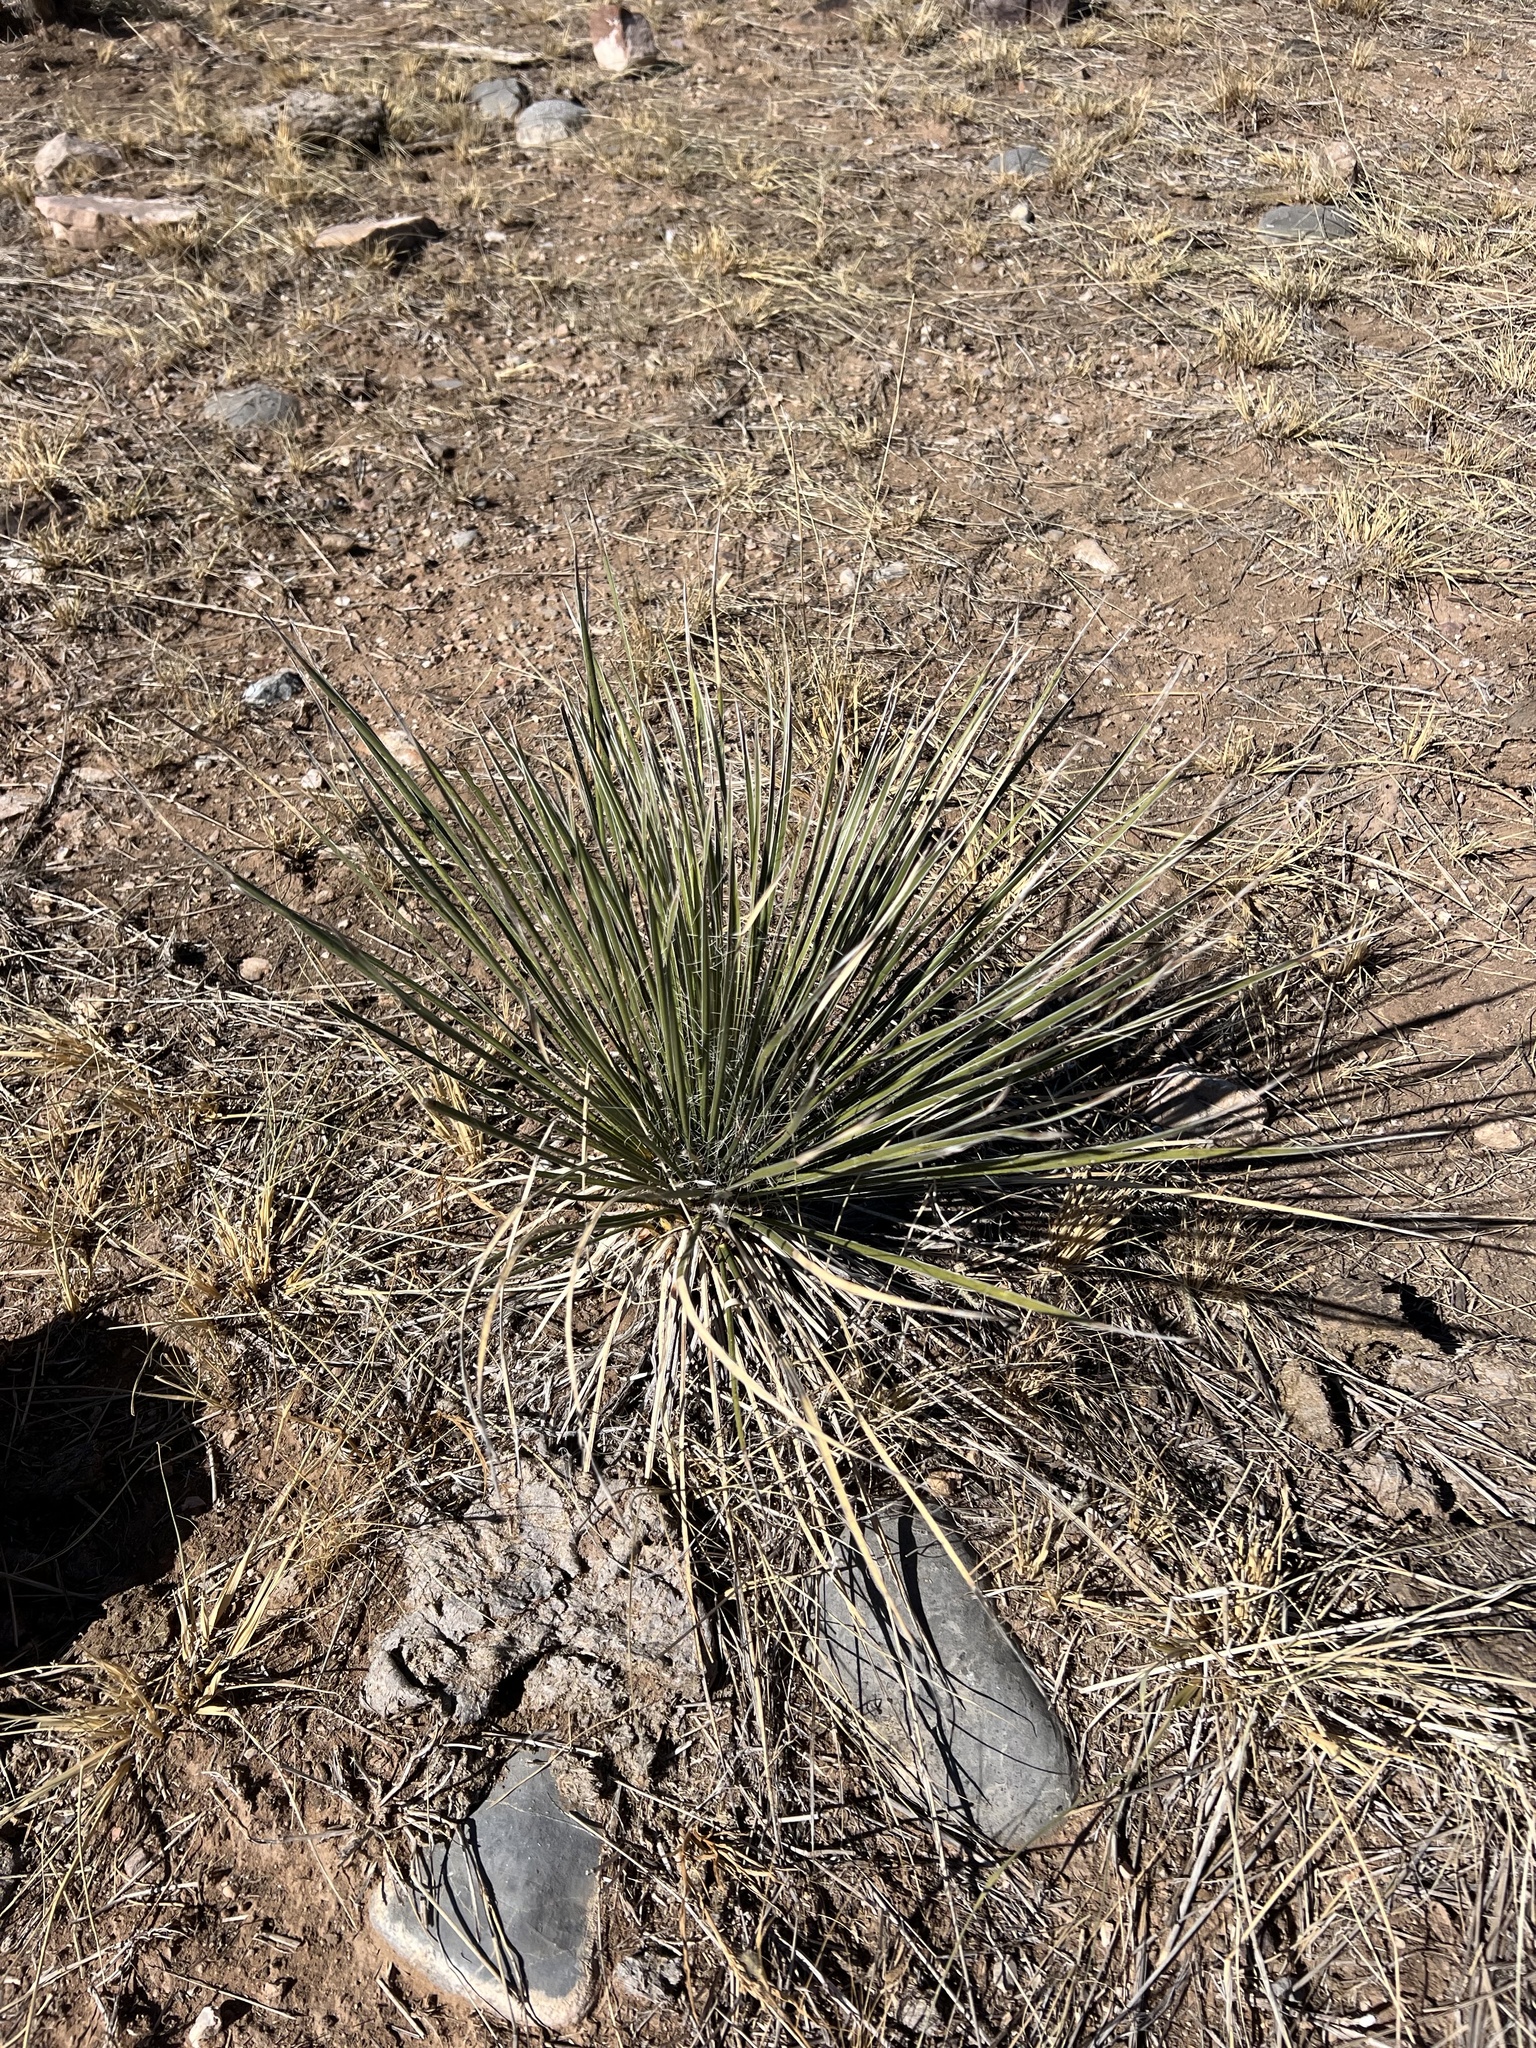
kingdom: Plantae
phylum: Tracheophyta
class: Liliopsida
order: Asparagales
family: Asparagaceae
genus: Yucca
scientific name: Yucca elata
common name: Palmella
